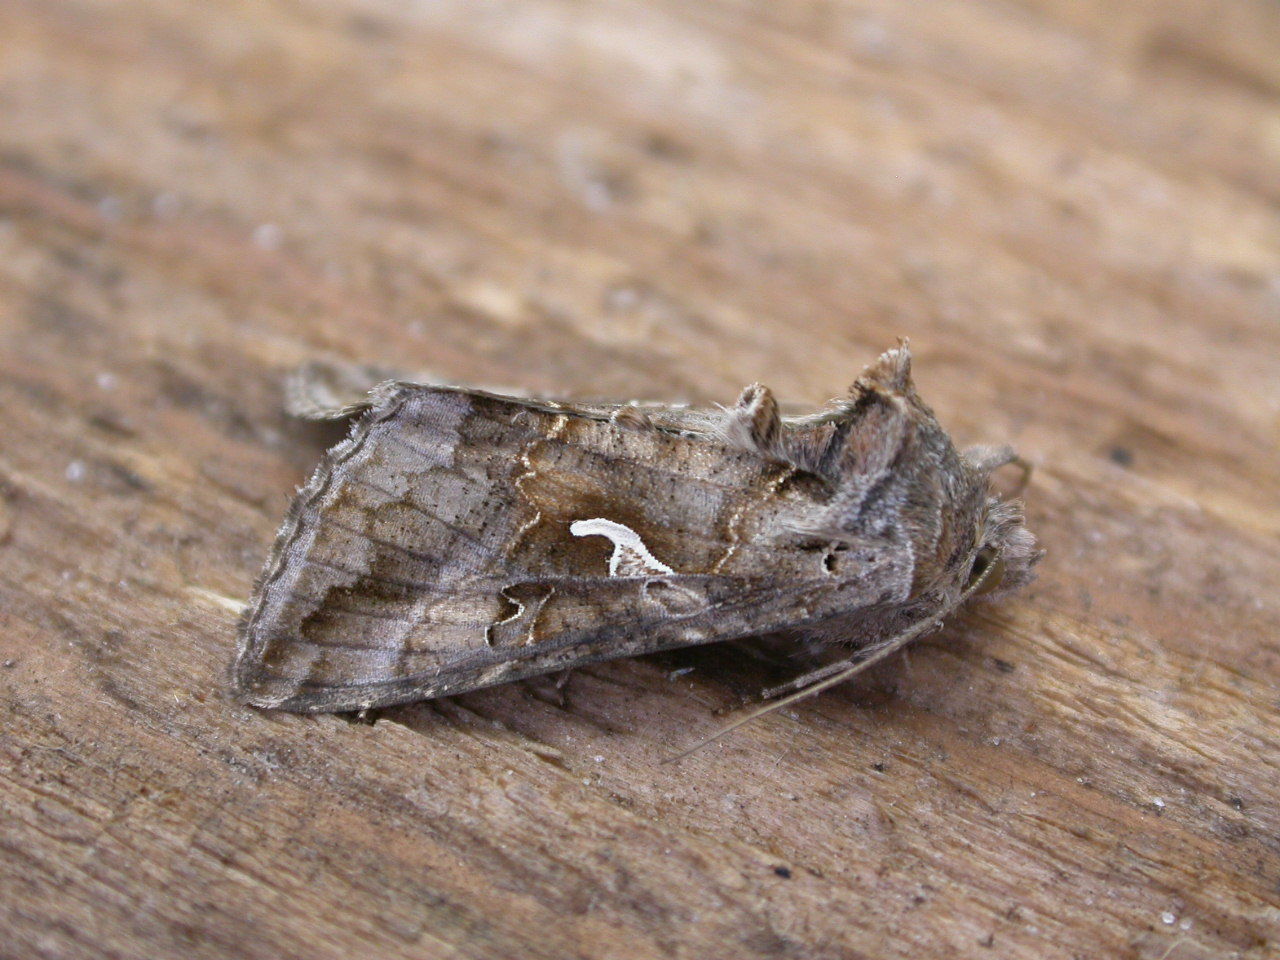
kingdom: Animalia
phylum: Arthropoda
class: Insecta
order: Lepidoptera
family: Noctuidae
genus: Autographa
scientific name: Autographa gamma
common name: Silver y
